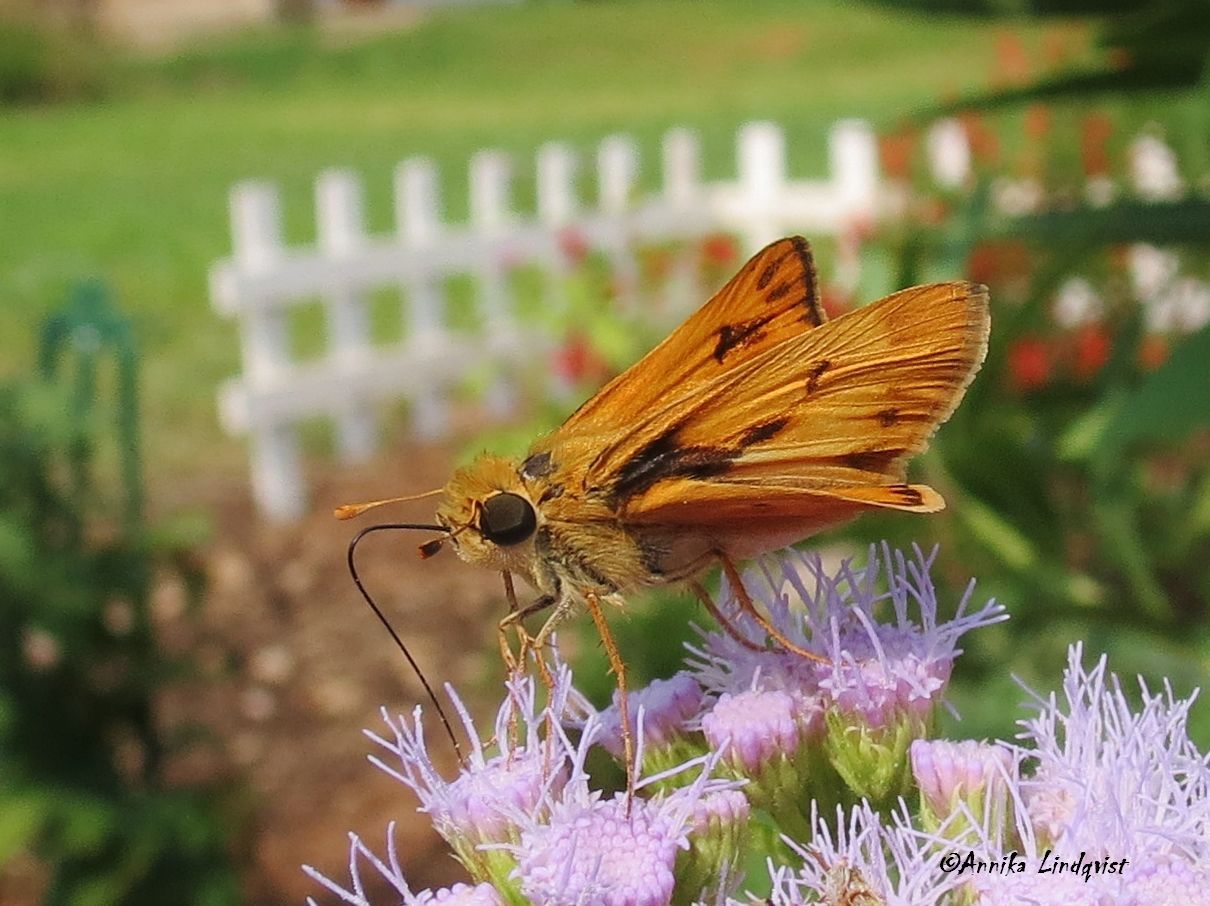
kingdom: Animalia
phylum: Arthropoda
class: Insecta
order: Lepidoptera
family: Hesperiidae
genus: Hylephila
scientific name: Hylephila phyleus
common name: Fiery skipper
